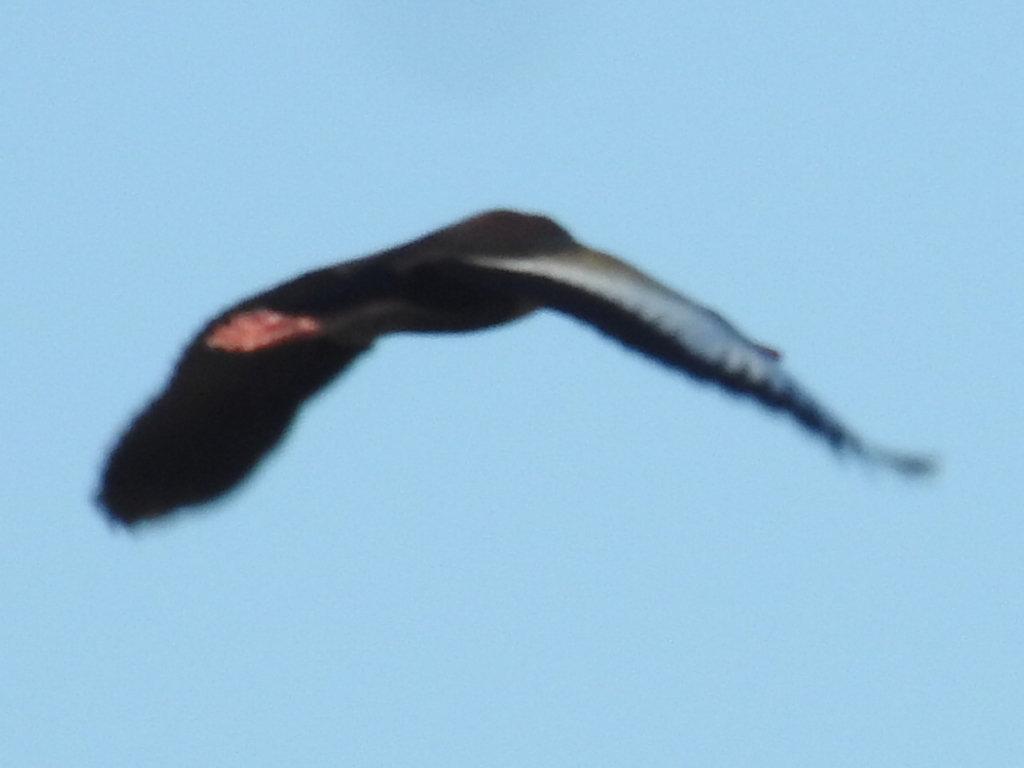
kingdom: Animalia
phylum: Chordata
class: Aves
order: Anseriformes
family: Anatidae
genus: Dendrocygna
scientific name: Dendrocygna autumnalis
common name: Black-bellied whistling duck
